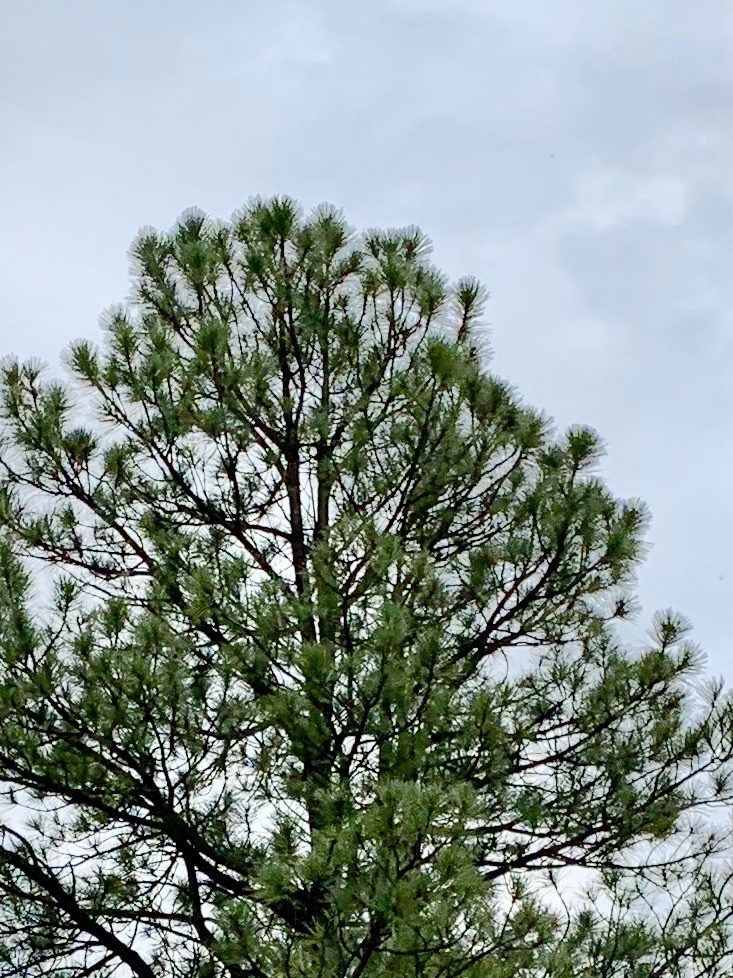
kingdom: Plantae
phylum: Tracheophyta
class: Pinopsida
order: Pinales
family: Pinaceae
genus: Pinus
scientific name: Pinus ponderosa
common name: Western yellow-pine
